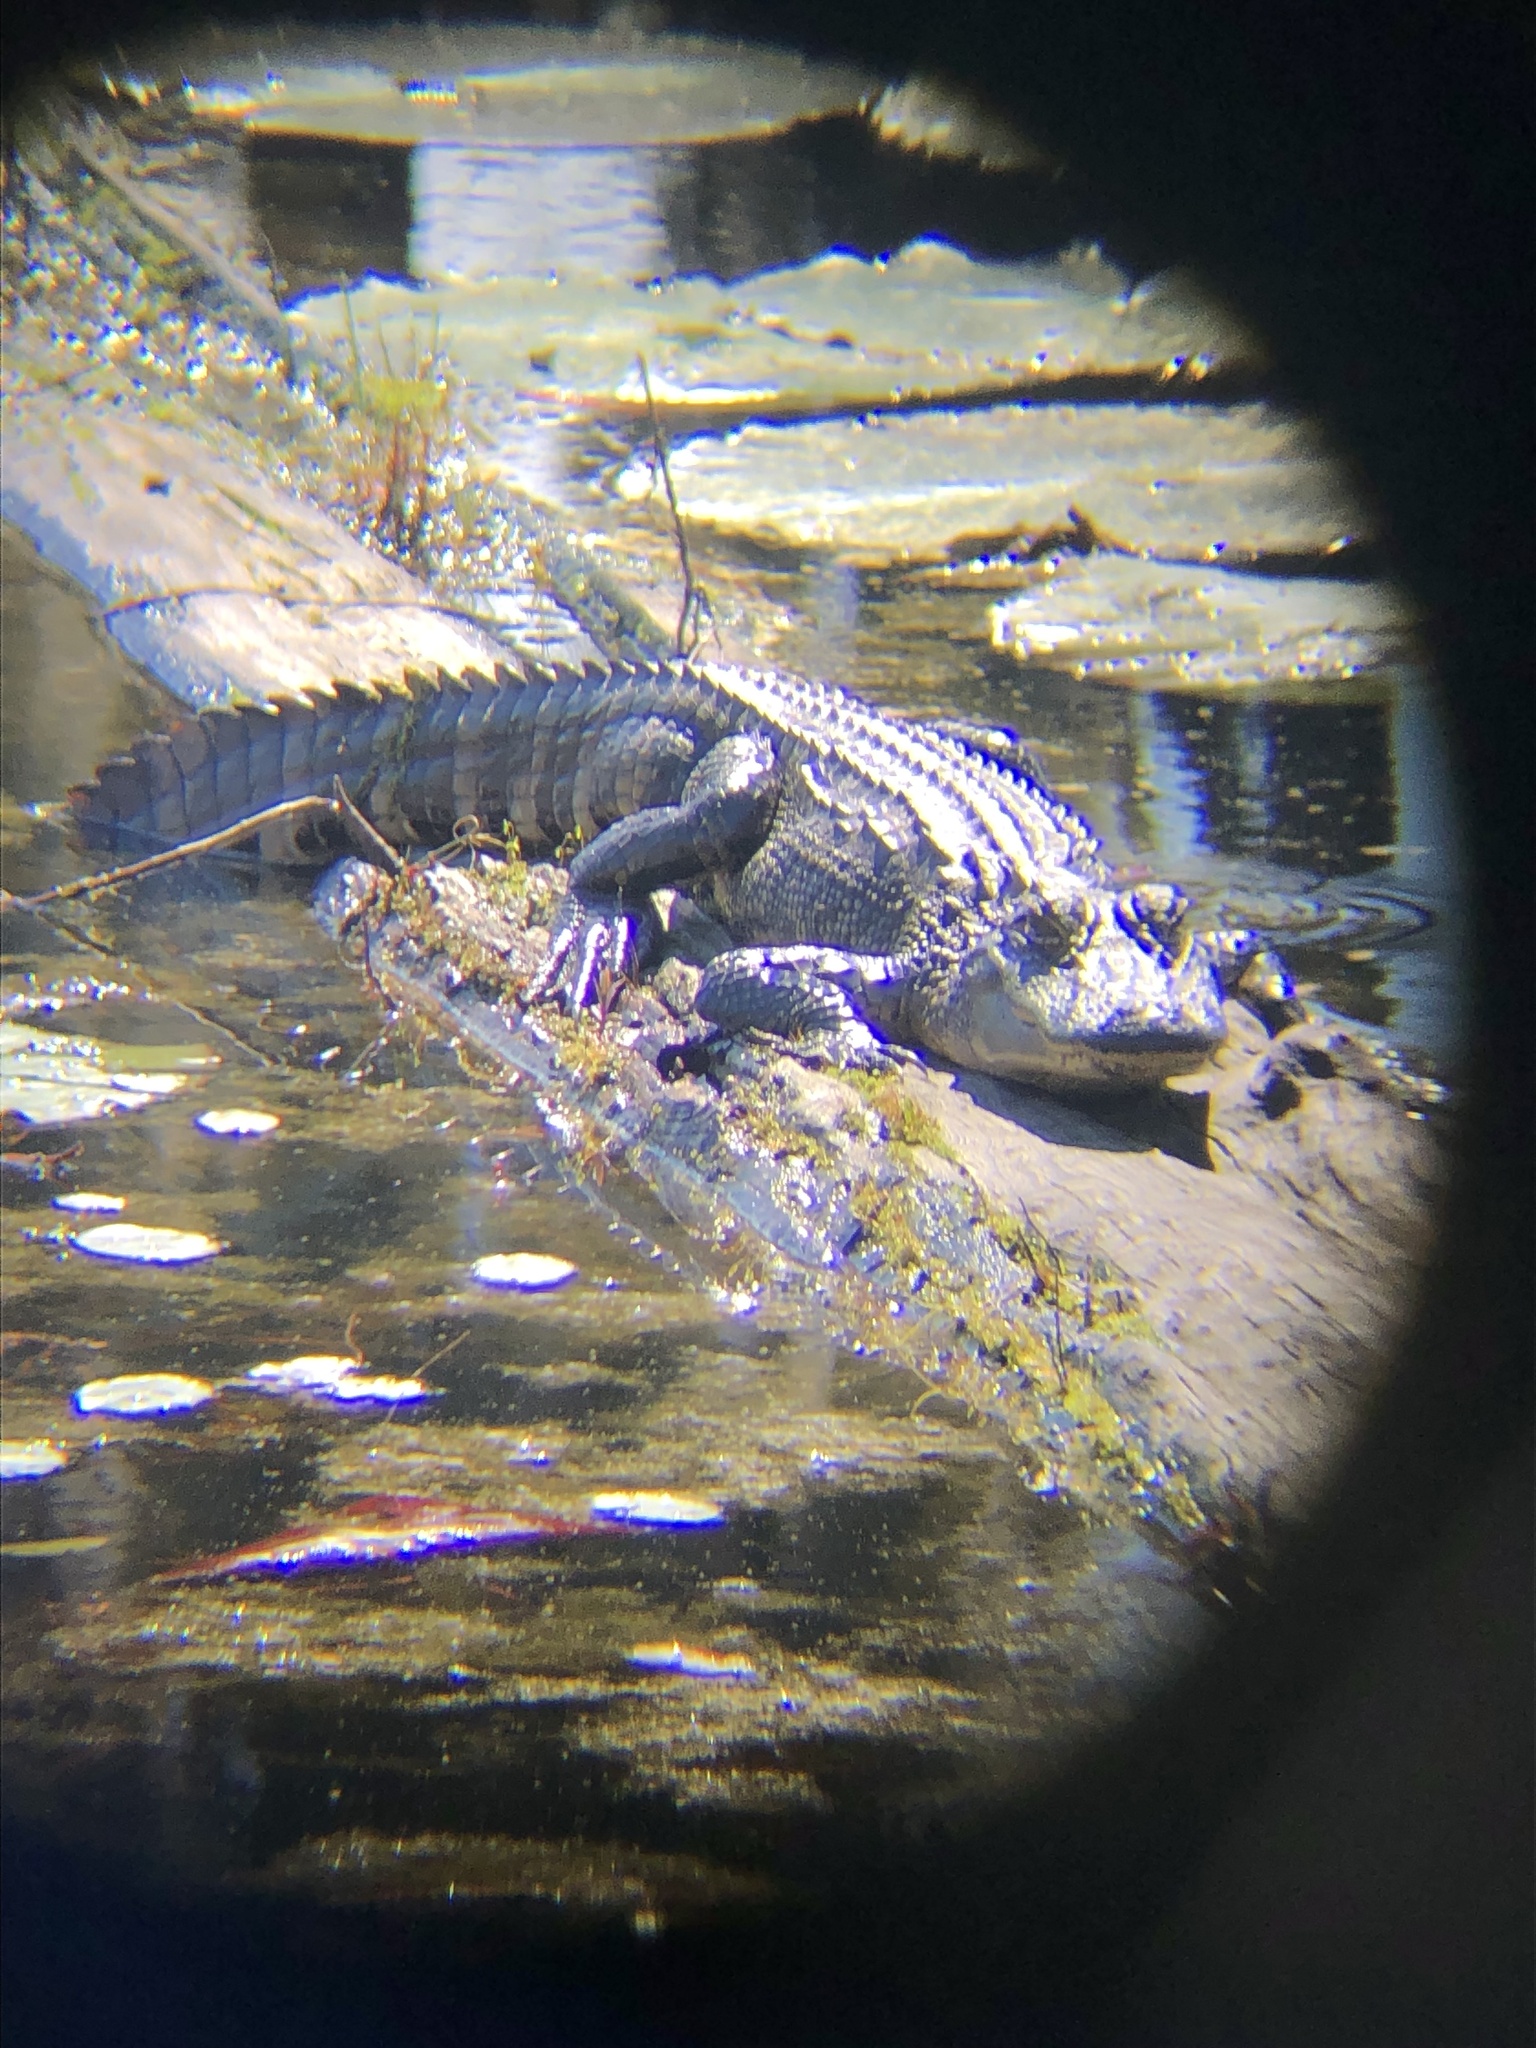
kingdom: Animalia
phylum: Chordata
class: Crocodylia
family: Alligatoridae
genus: Alligator
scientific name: Alligator mississippiensis
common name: American alligator
